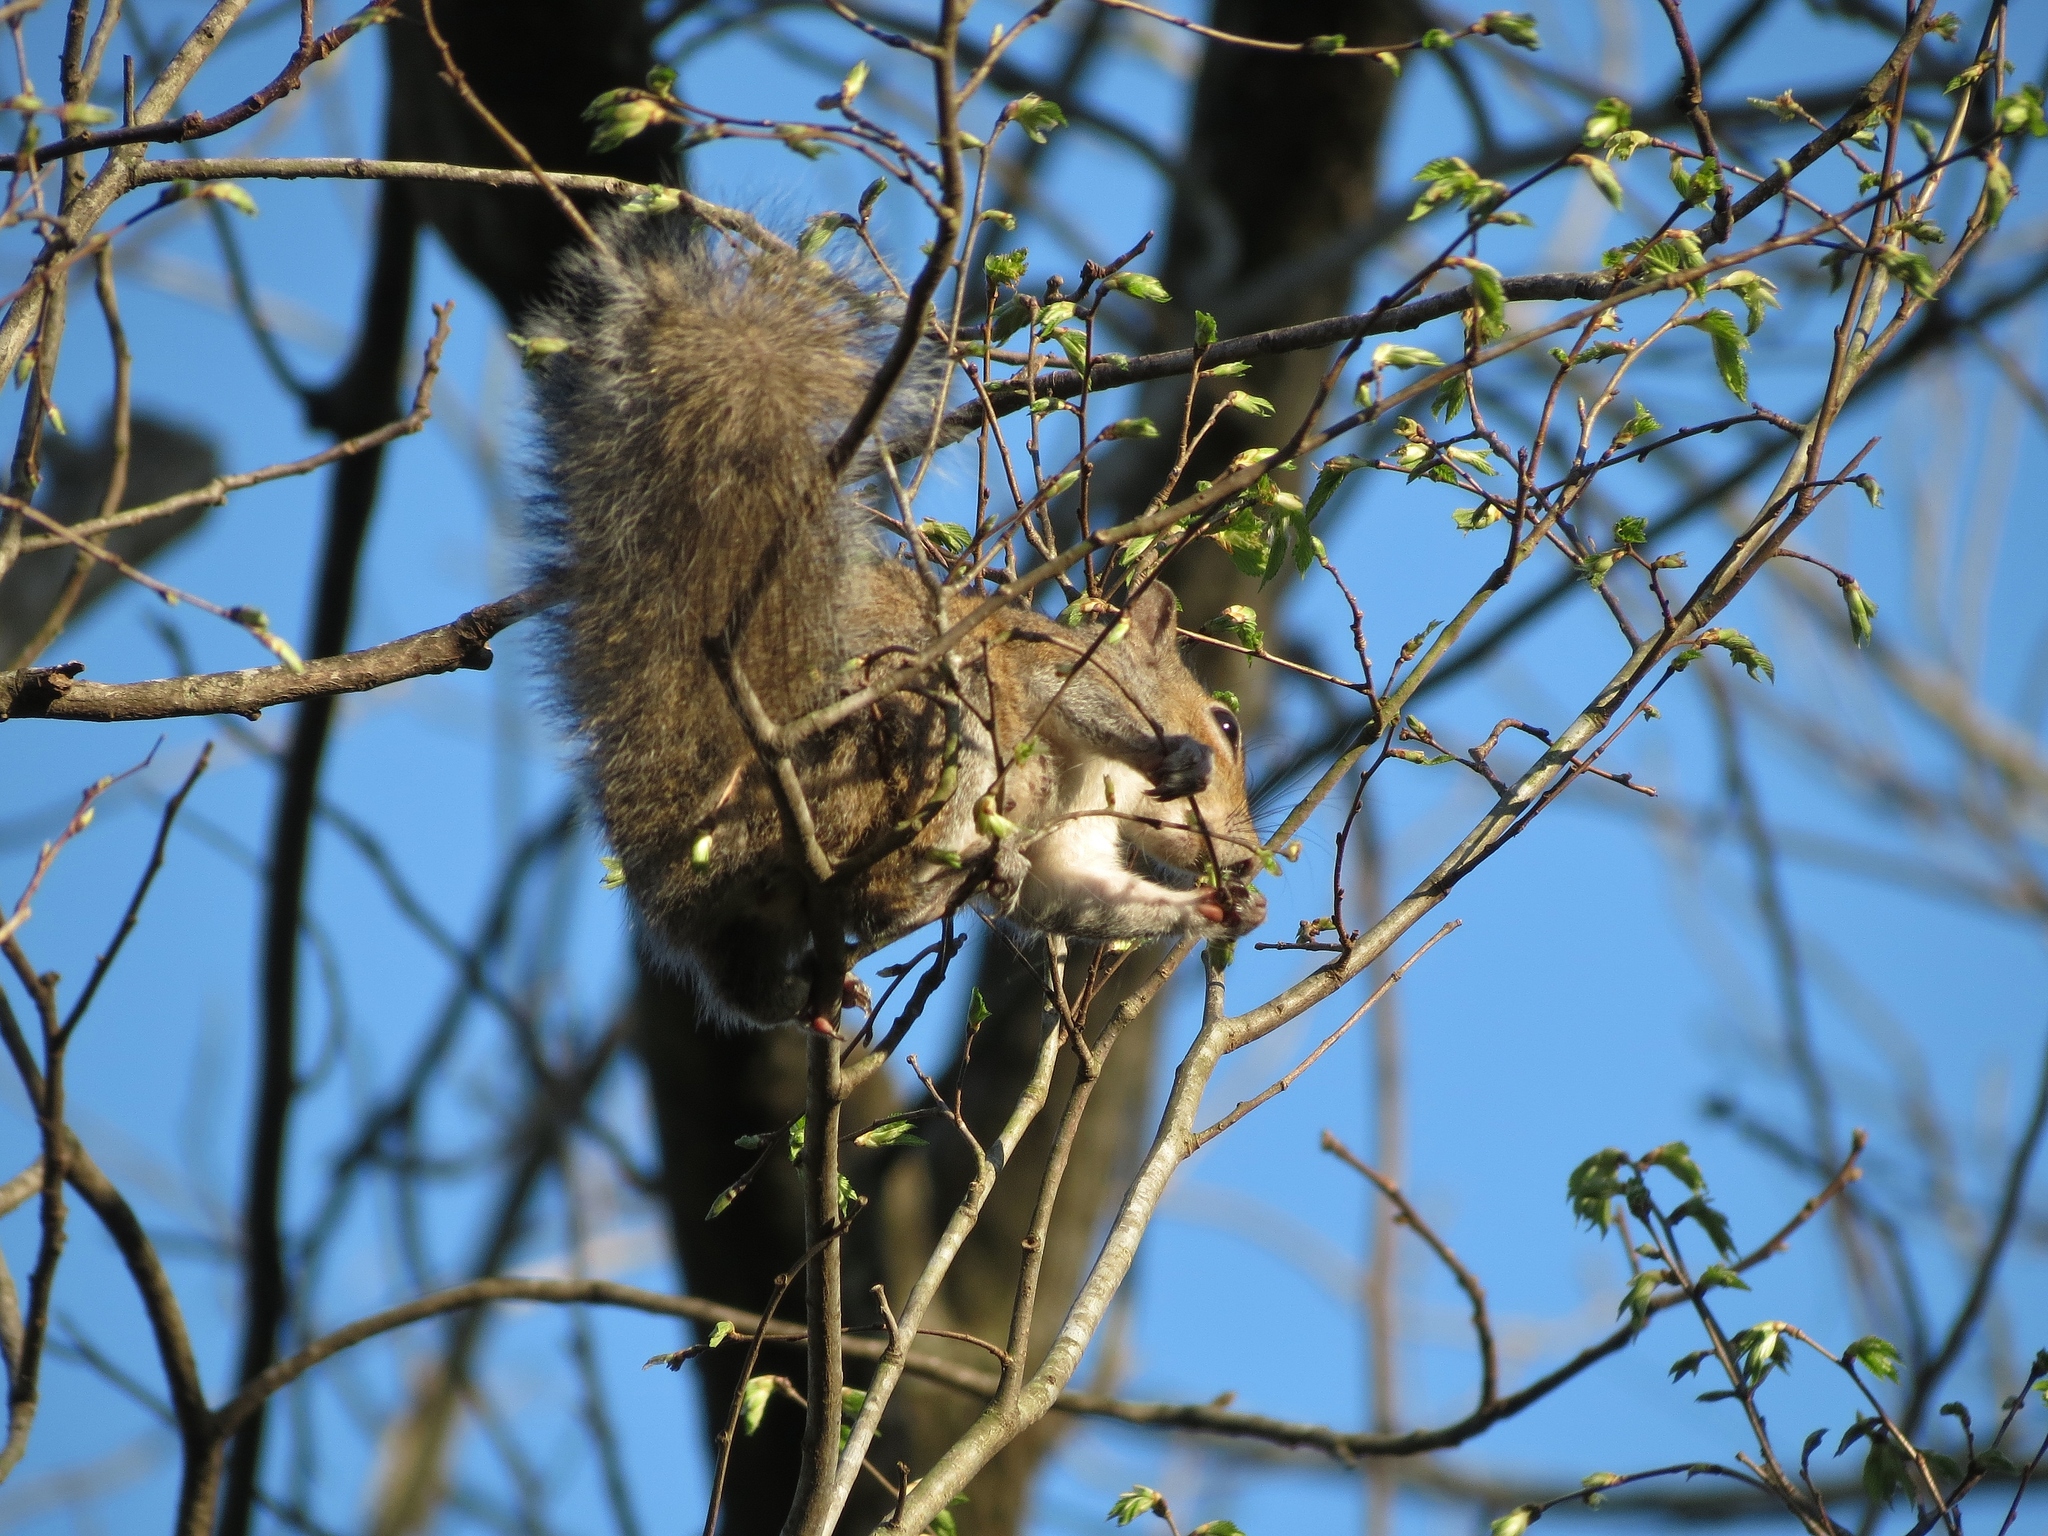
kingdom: Animalia
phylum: Chordata
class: Mammalia
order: Rodentia
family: Sciuridae
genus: Sciurus
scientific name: Sciurus carolinensis
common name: Eastern gray squirrel
